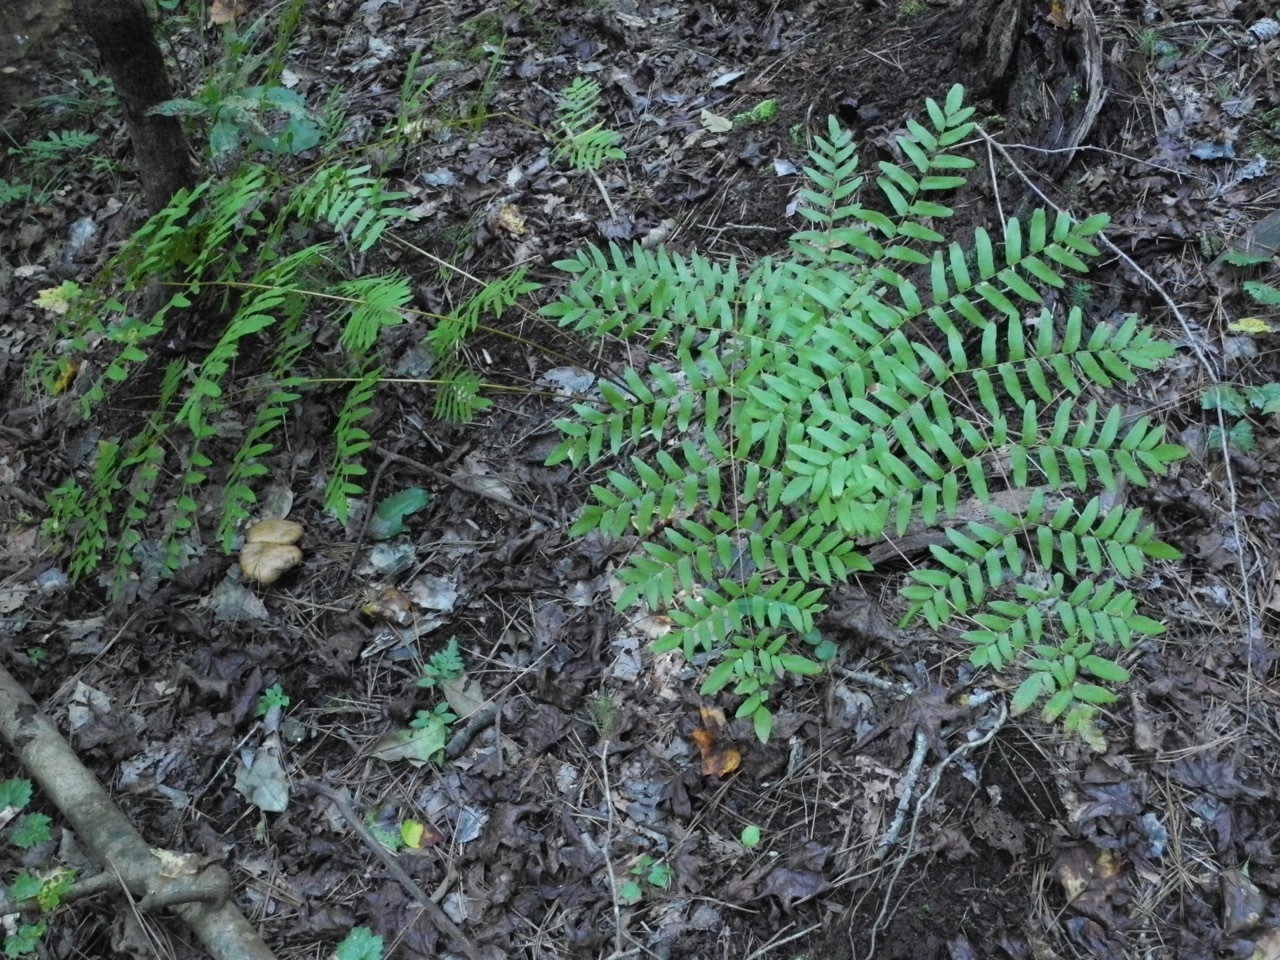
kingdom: Plantae
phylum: Tracheophyta
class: Polypodiopsida
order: Osmundales
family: Osmundaceae
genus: Osmunda
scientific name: Osmunda spectabilis
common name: American royal fern
